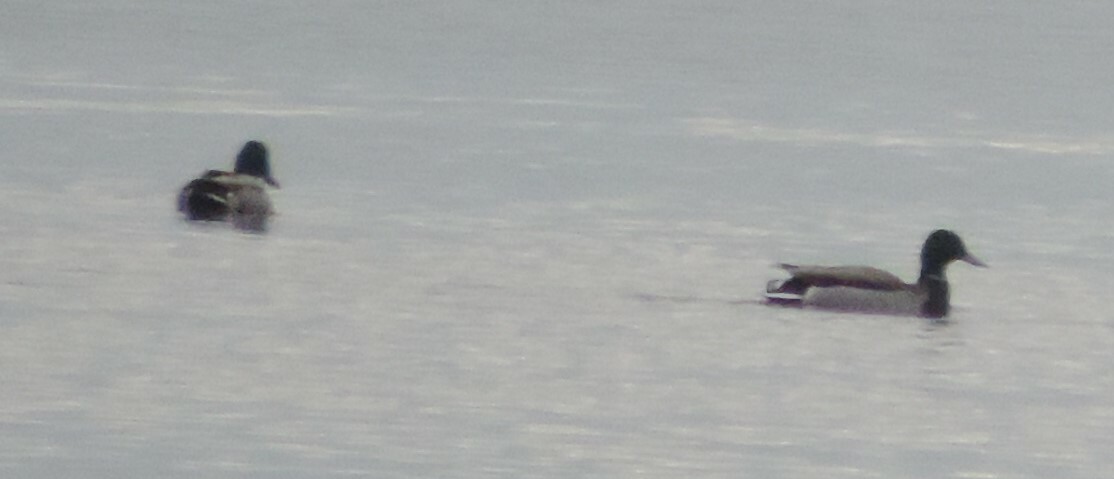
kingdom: Animalia
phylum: Chordata
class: Aves
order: Anseriformes
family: Anatidae
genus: Anas
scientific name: Anas platyrhynchos
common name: Mallard
